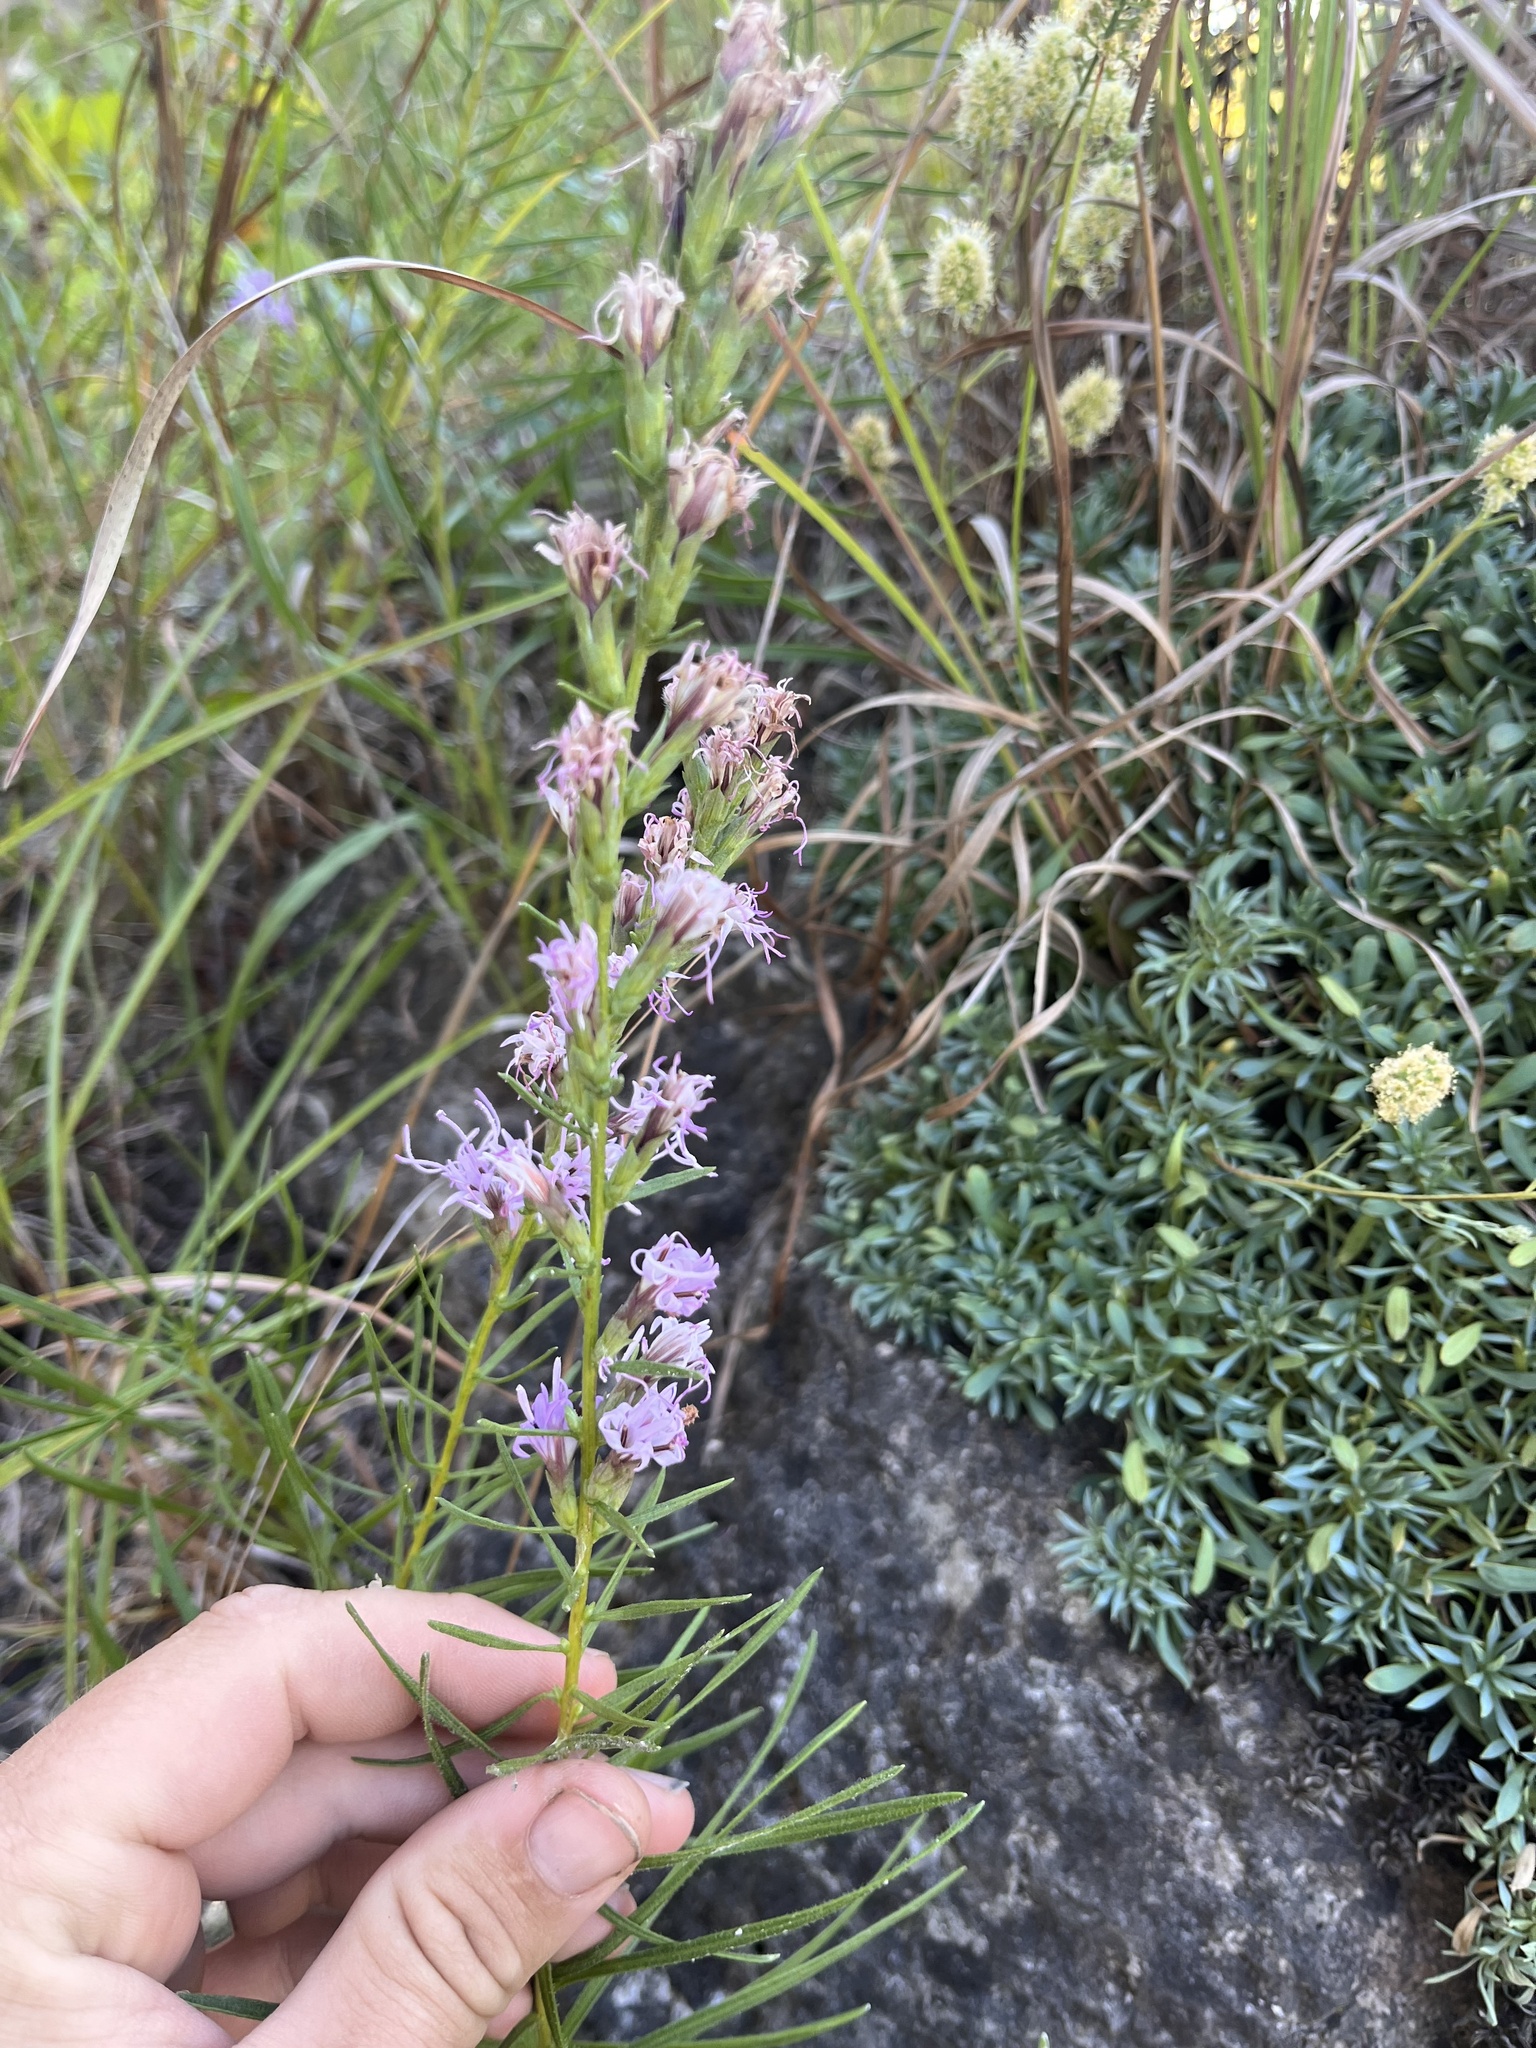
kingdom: Plantae
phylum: Tracheophyta
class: Magnoliopsida
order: Asterales
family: Asteraceae
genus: Liatris
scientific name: Liatris punctata
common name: Dotted gayfeather
